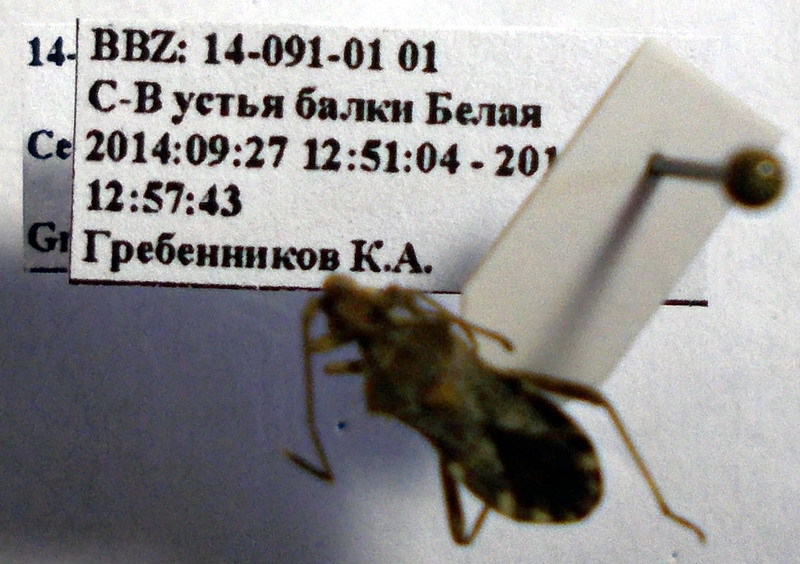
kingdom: Animalia
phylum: Arthropoda
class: Insecta
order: Hemiptera
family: Coreidae
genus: Centrocoris
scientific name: Centrocoris spiniger
